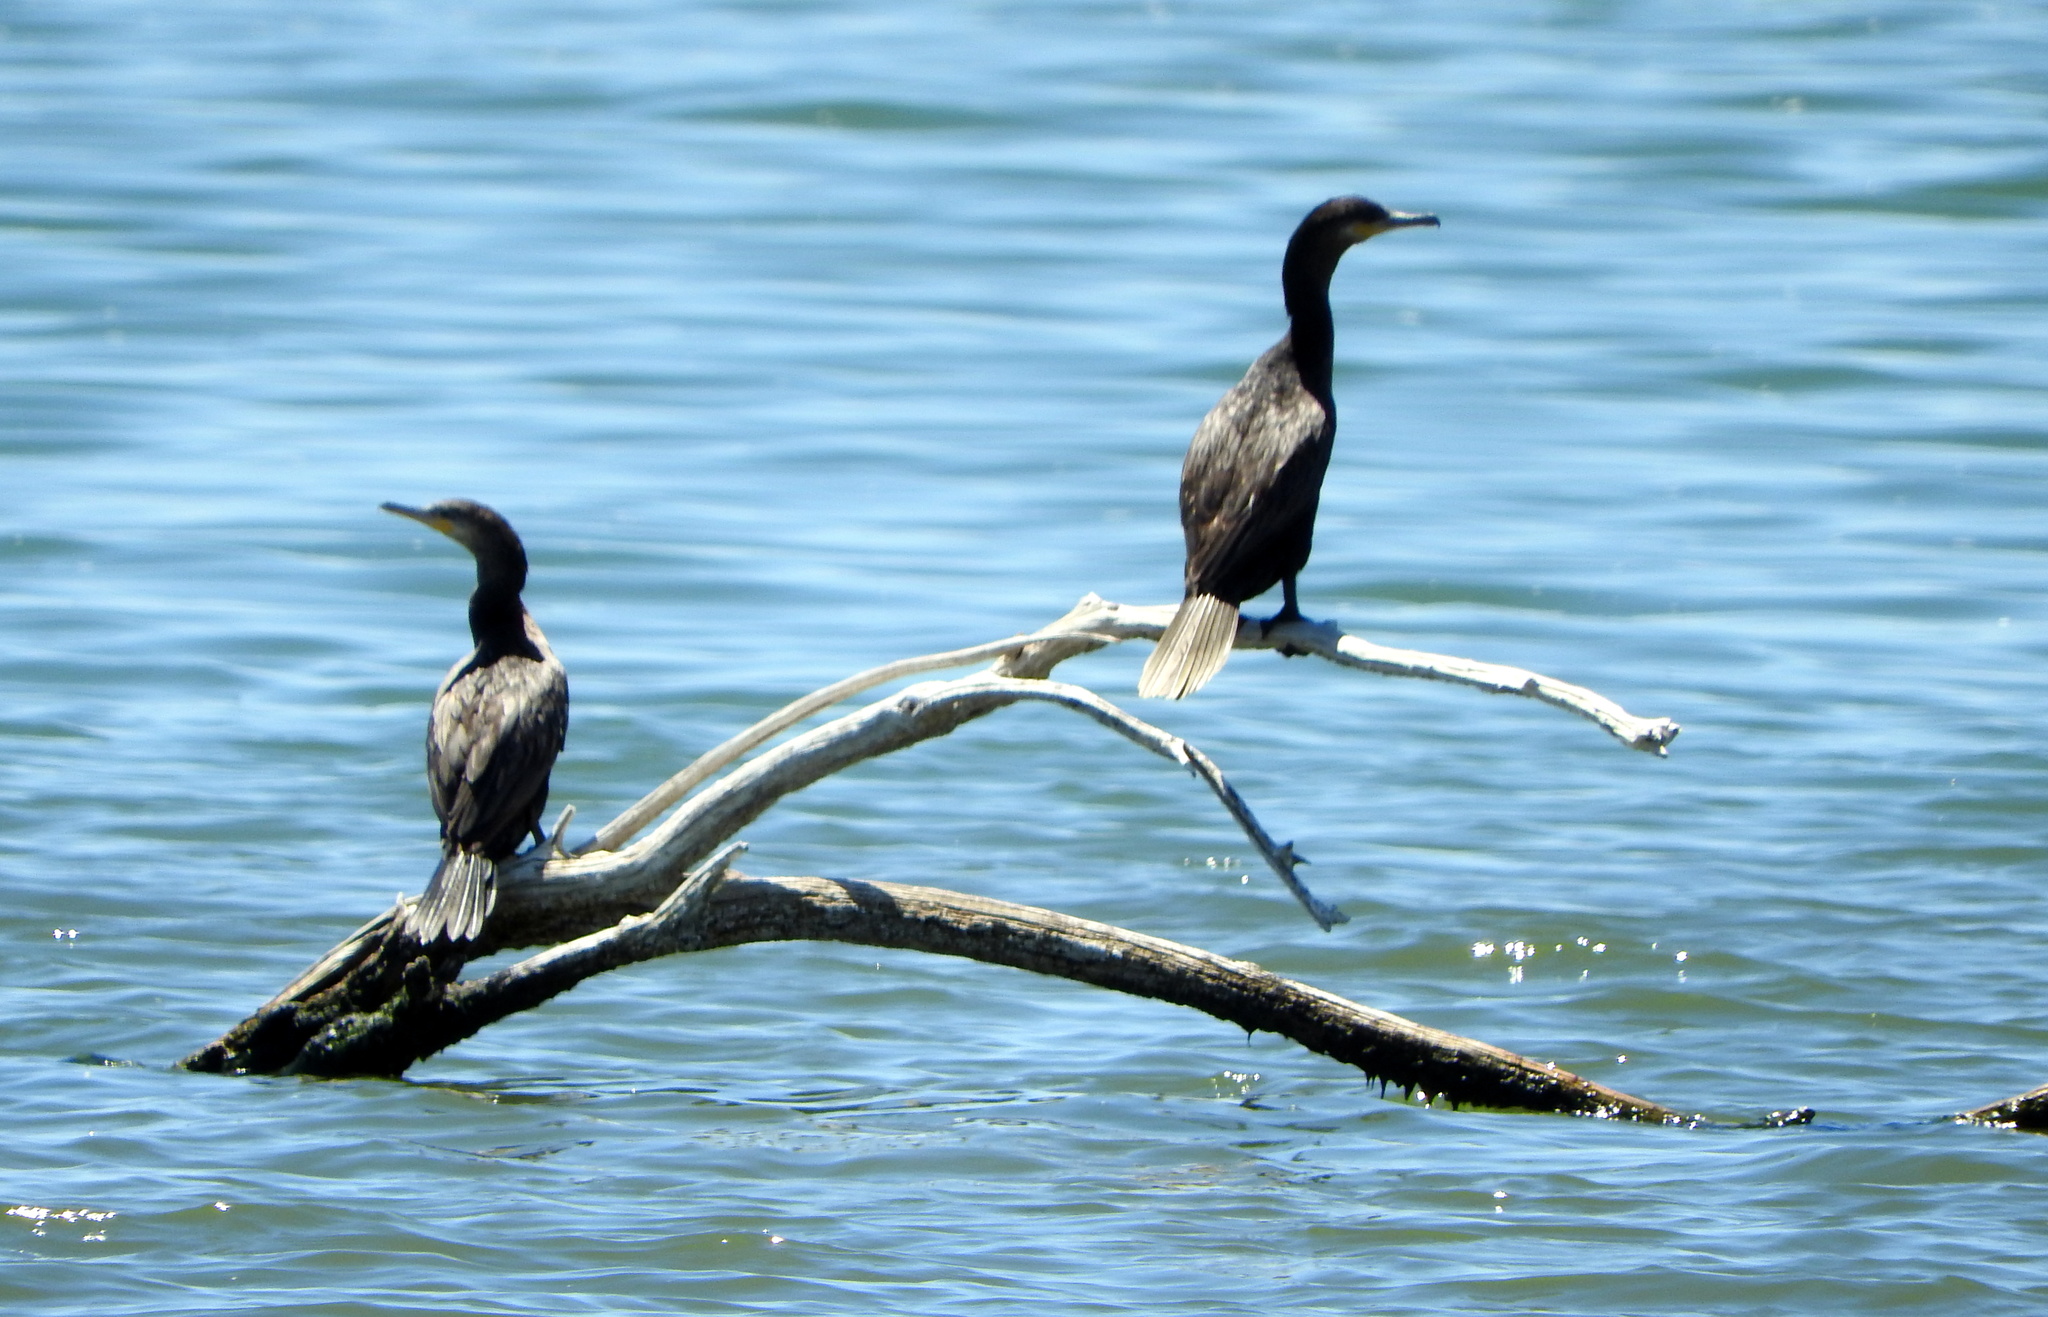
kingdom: Animalia
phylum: Chordata
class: Aves
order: Suliformes
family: Phalacrocoracidae
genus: Phalacrocorax
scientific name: Phalacrocorax brasilianus
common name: Neotropic cormorant
